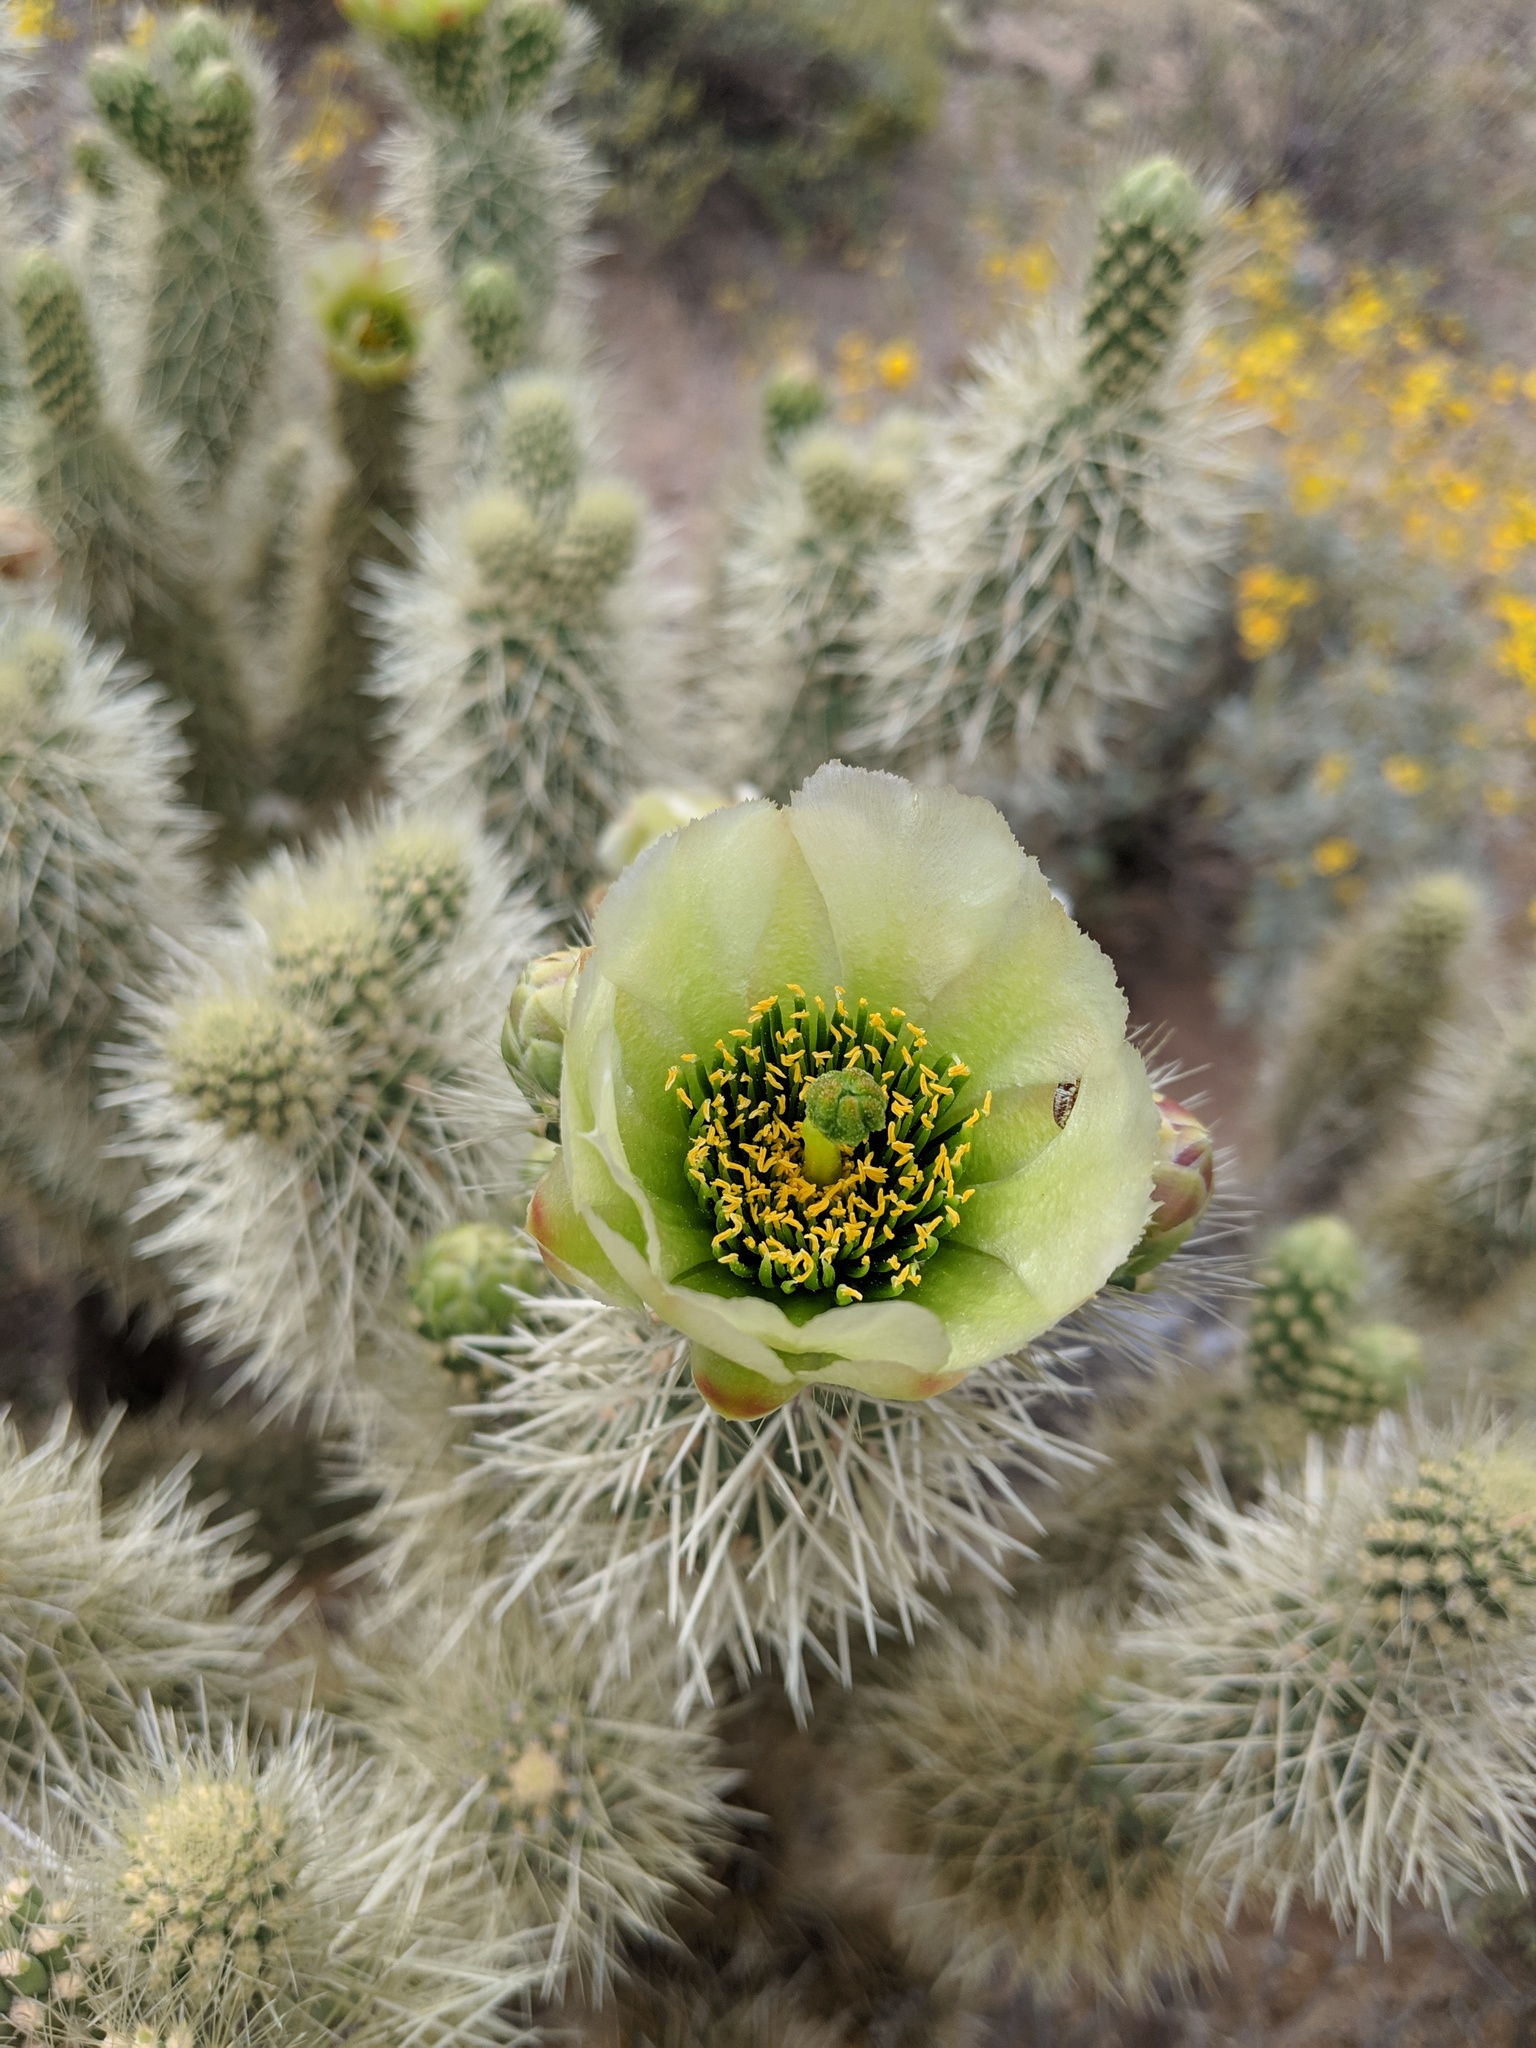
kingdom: Plantae
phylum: Tracheophyta
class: Magnoliopsida
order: Caryophyllales
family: Cactaceae
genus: Cylindropuntia
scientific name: Cylindropuntia fosbergii
